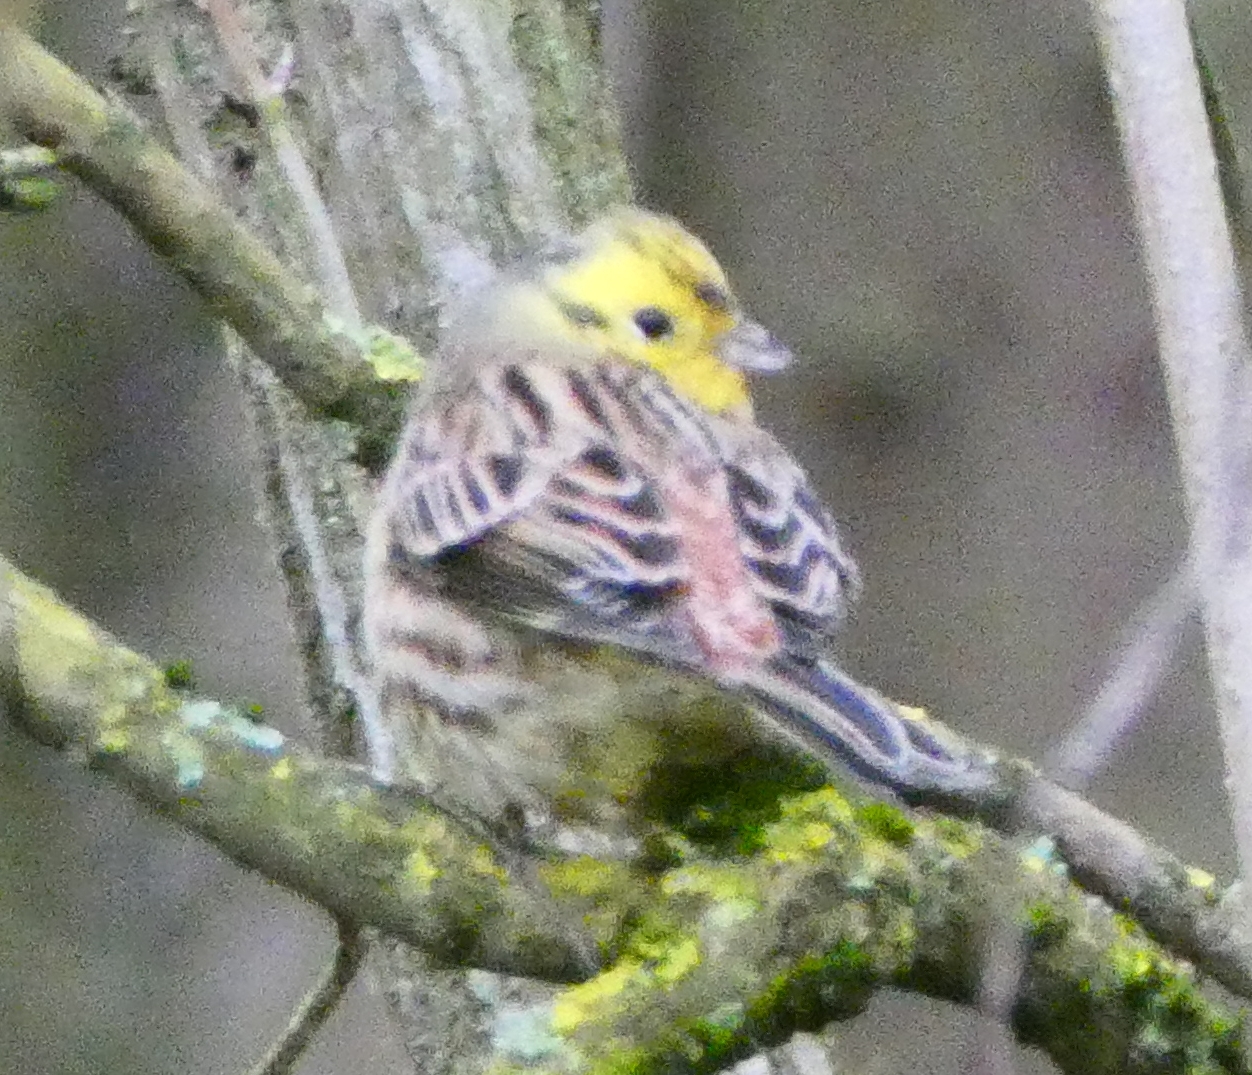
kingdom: Animalia
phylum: Chordata
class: Aves
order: Passeriformes
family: Emberizidae
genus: Emberiza
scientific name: Emberiza citrinella
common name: Yellowhammer
